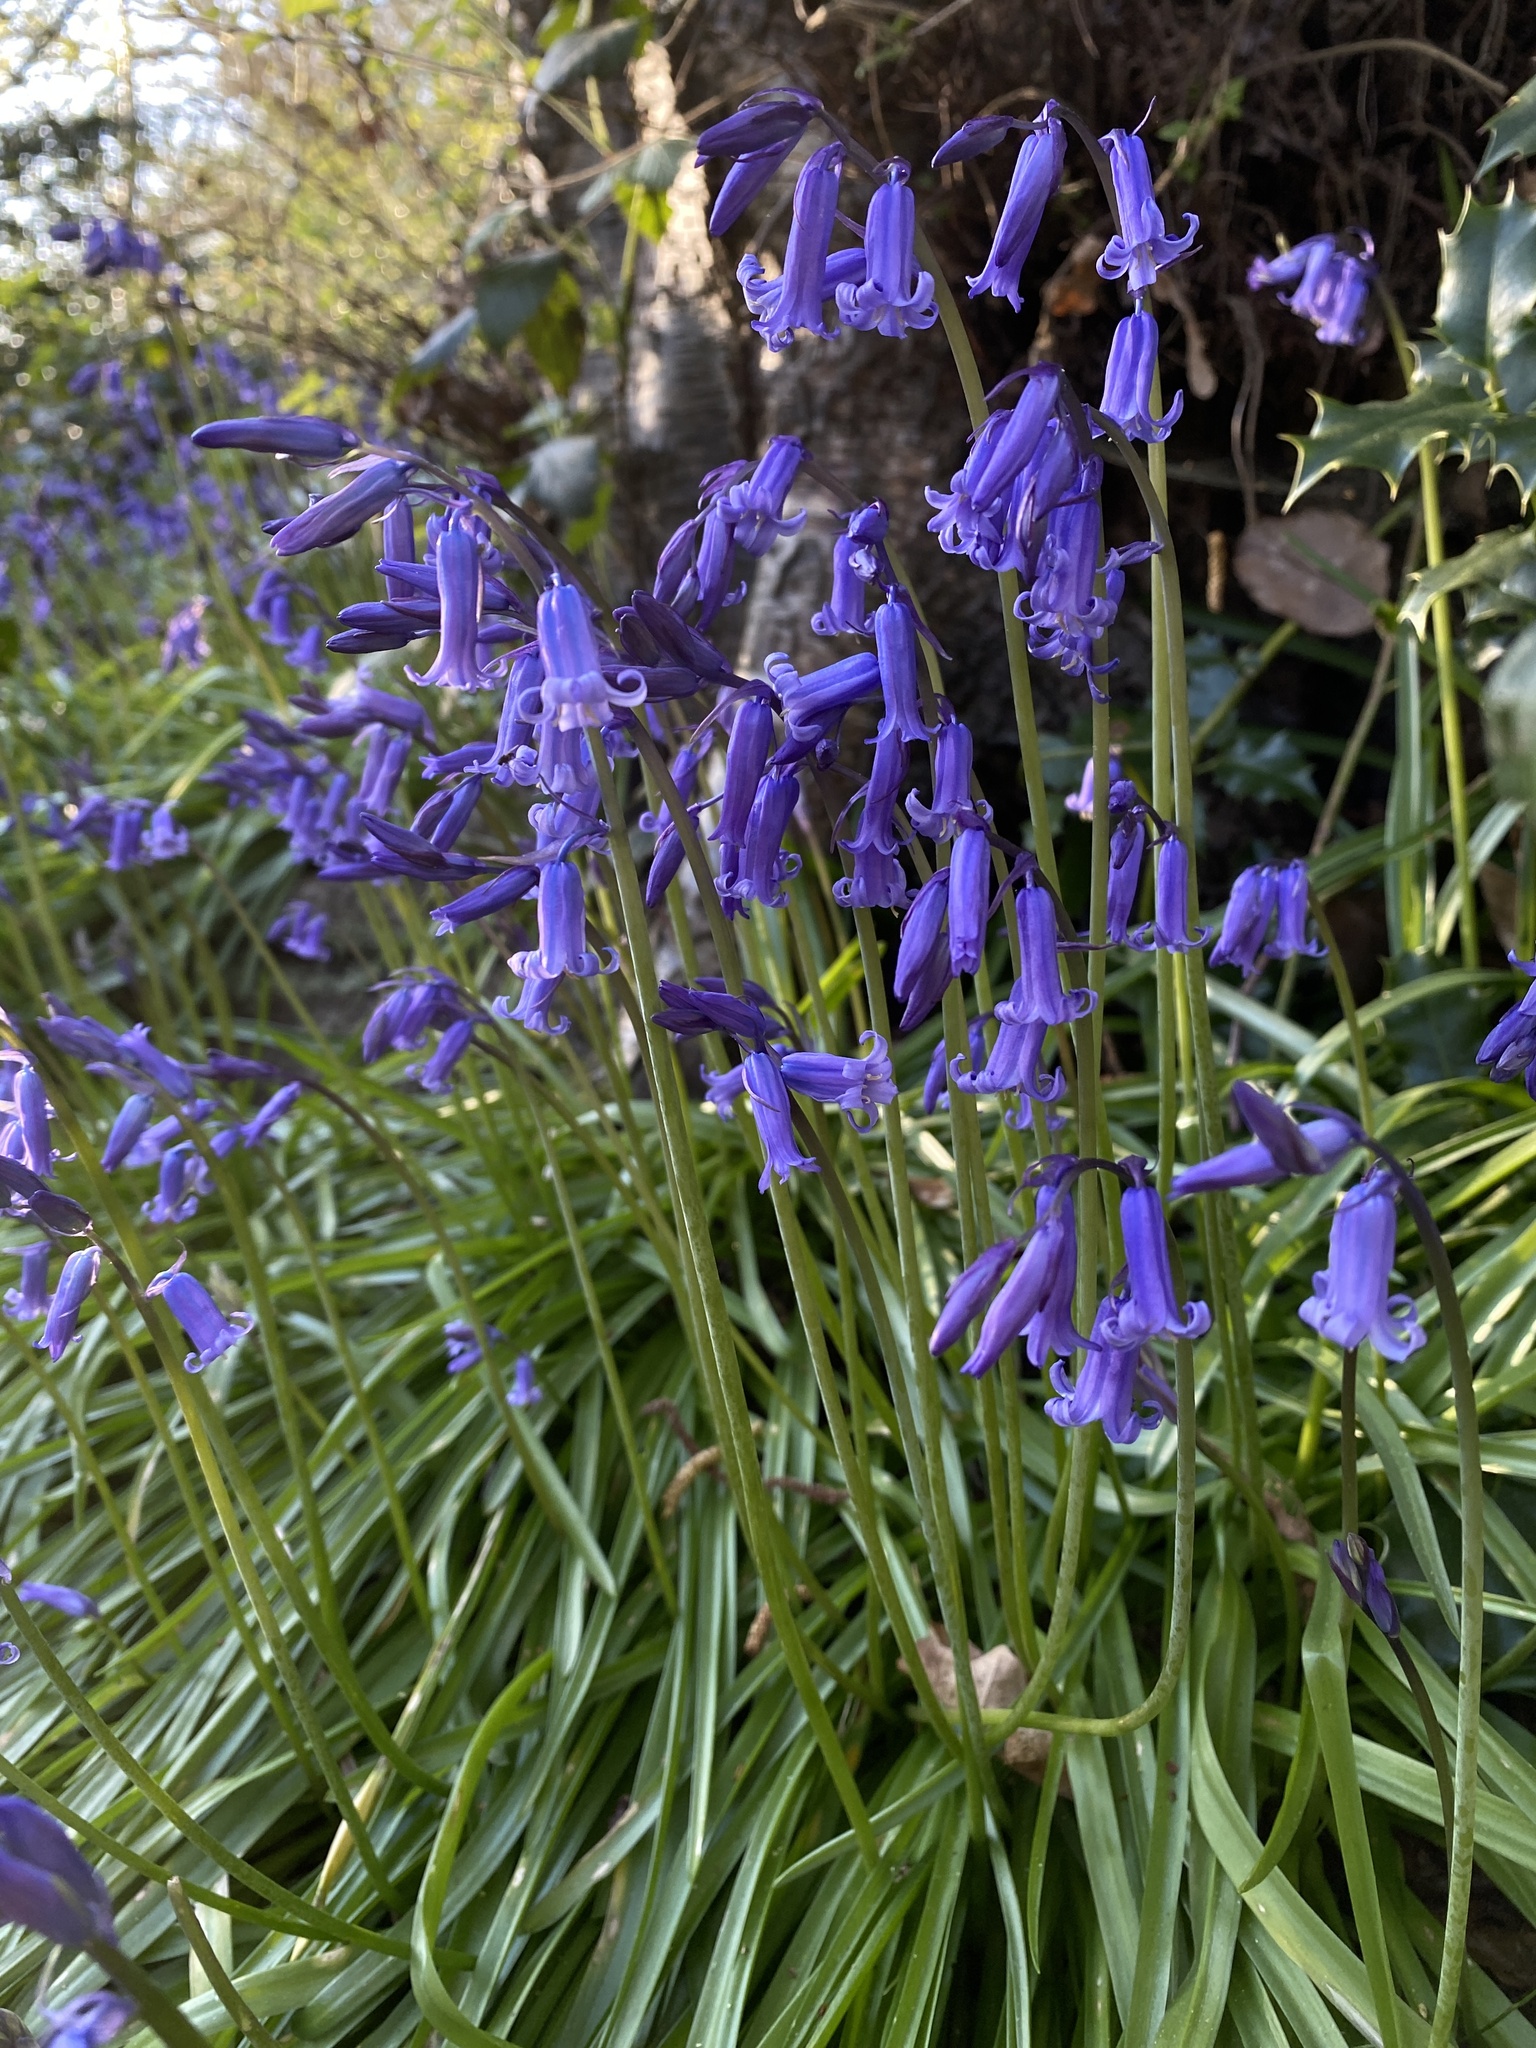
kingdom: Plantae
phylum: Tracheophyta
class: Liliopsida
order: Asparagales
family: Asparagaceae
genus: Hyacinthoides
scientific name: Hyacinthoides non-scripta
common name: Bluebell
